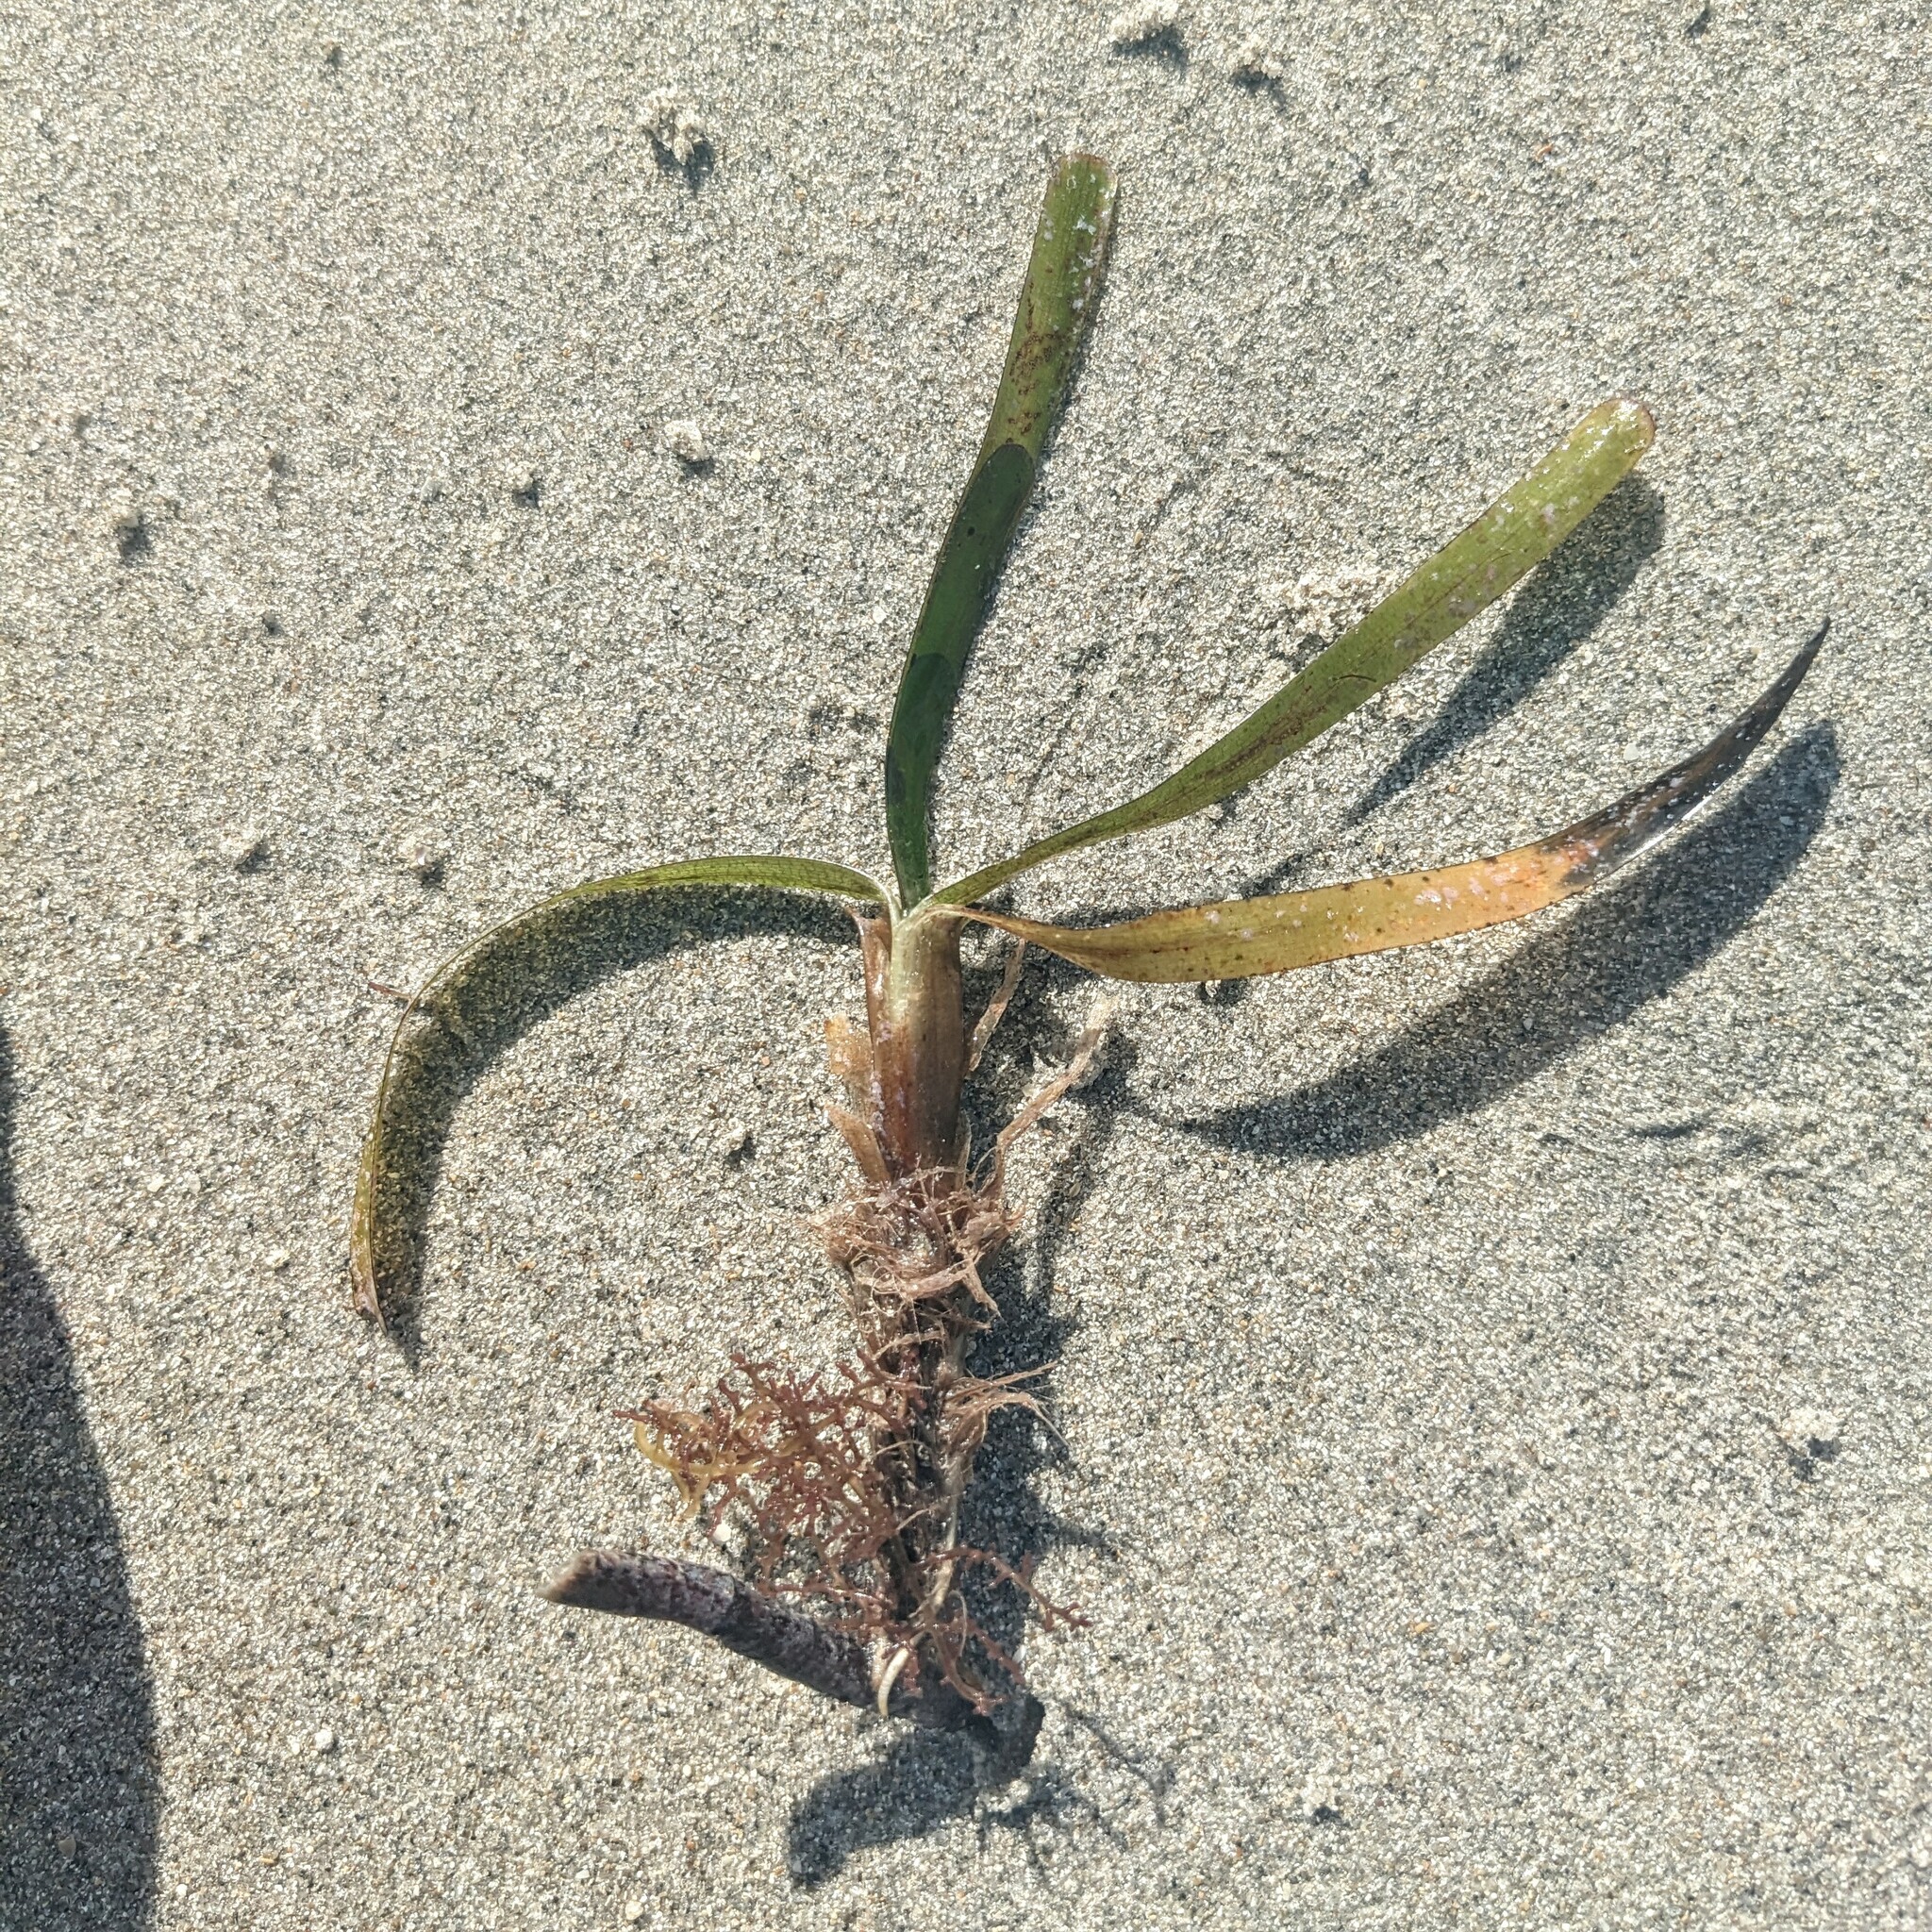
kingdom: Plantae
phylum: Tracheophyta
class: Liliopsida
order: Alismatales
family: Hydrocharitaceae
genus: Thalassia
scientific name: Thalassia testudinum
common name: Species code: tt
